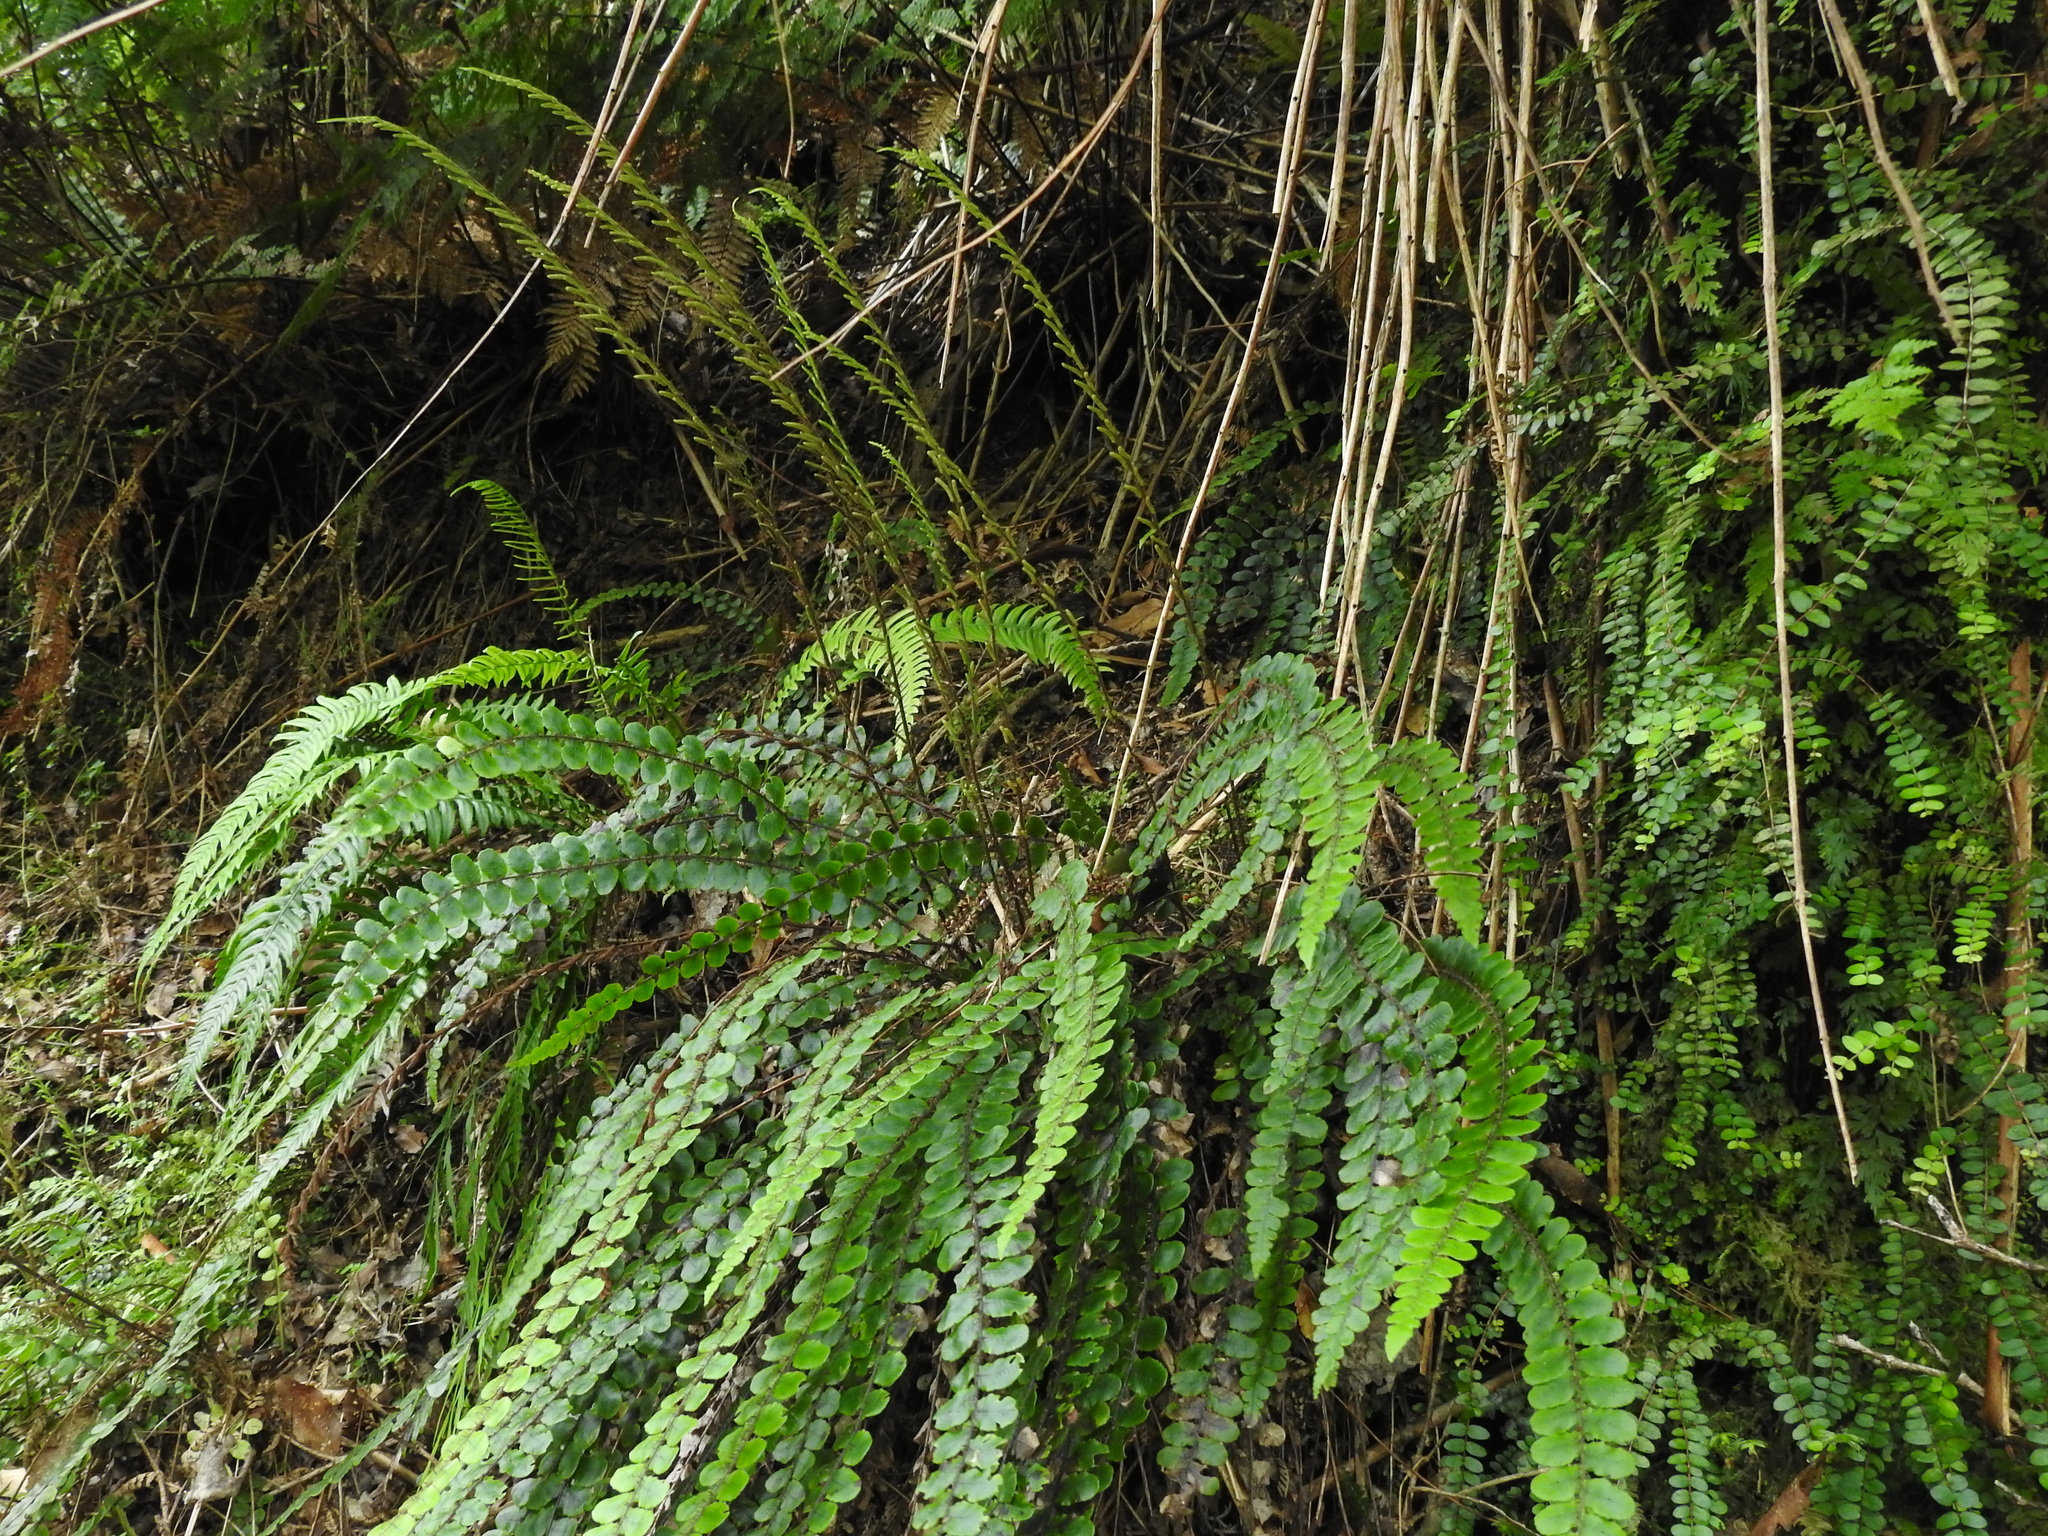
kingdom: Plantae
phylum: Tracheophyta
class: Polypodiopsida
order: Polypodiales
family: Blechnaceae
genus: Cranfillia
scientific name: Cranfillia fluviatilis
